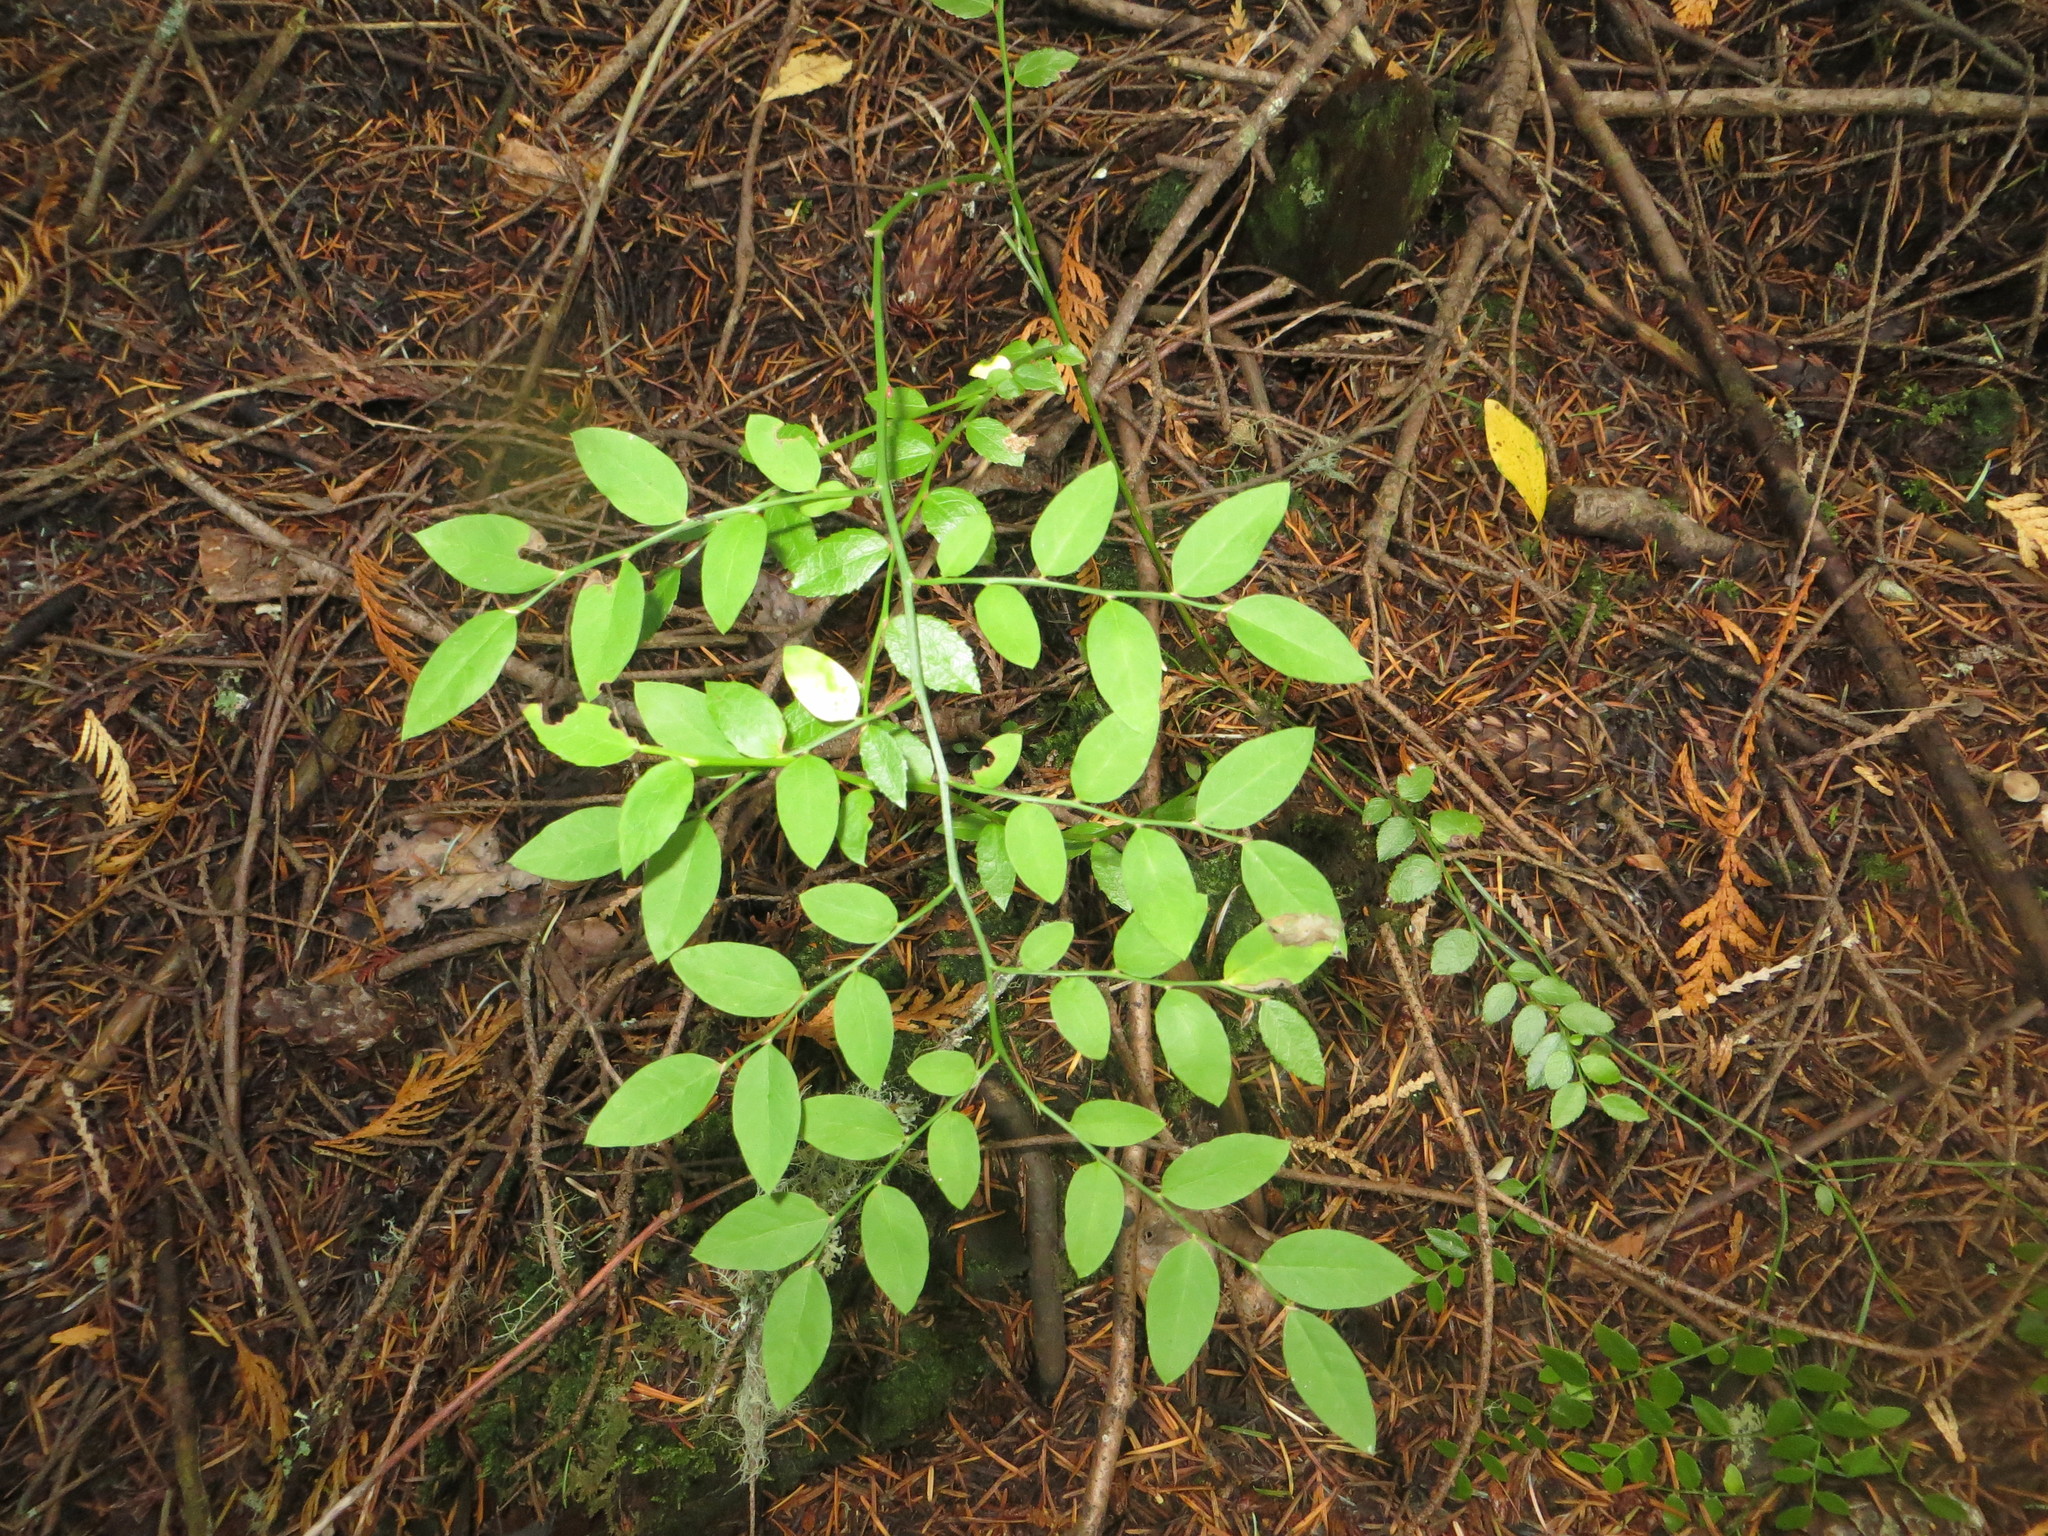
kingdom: Plantae
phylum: Tracheophyta
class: Magnoliopsida
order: Ericales
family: Ericaceae
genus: Vaccinium
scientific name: Vaccinium parvifolium
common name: Red-huckleberry
